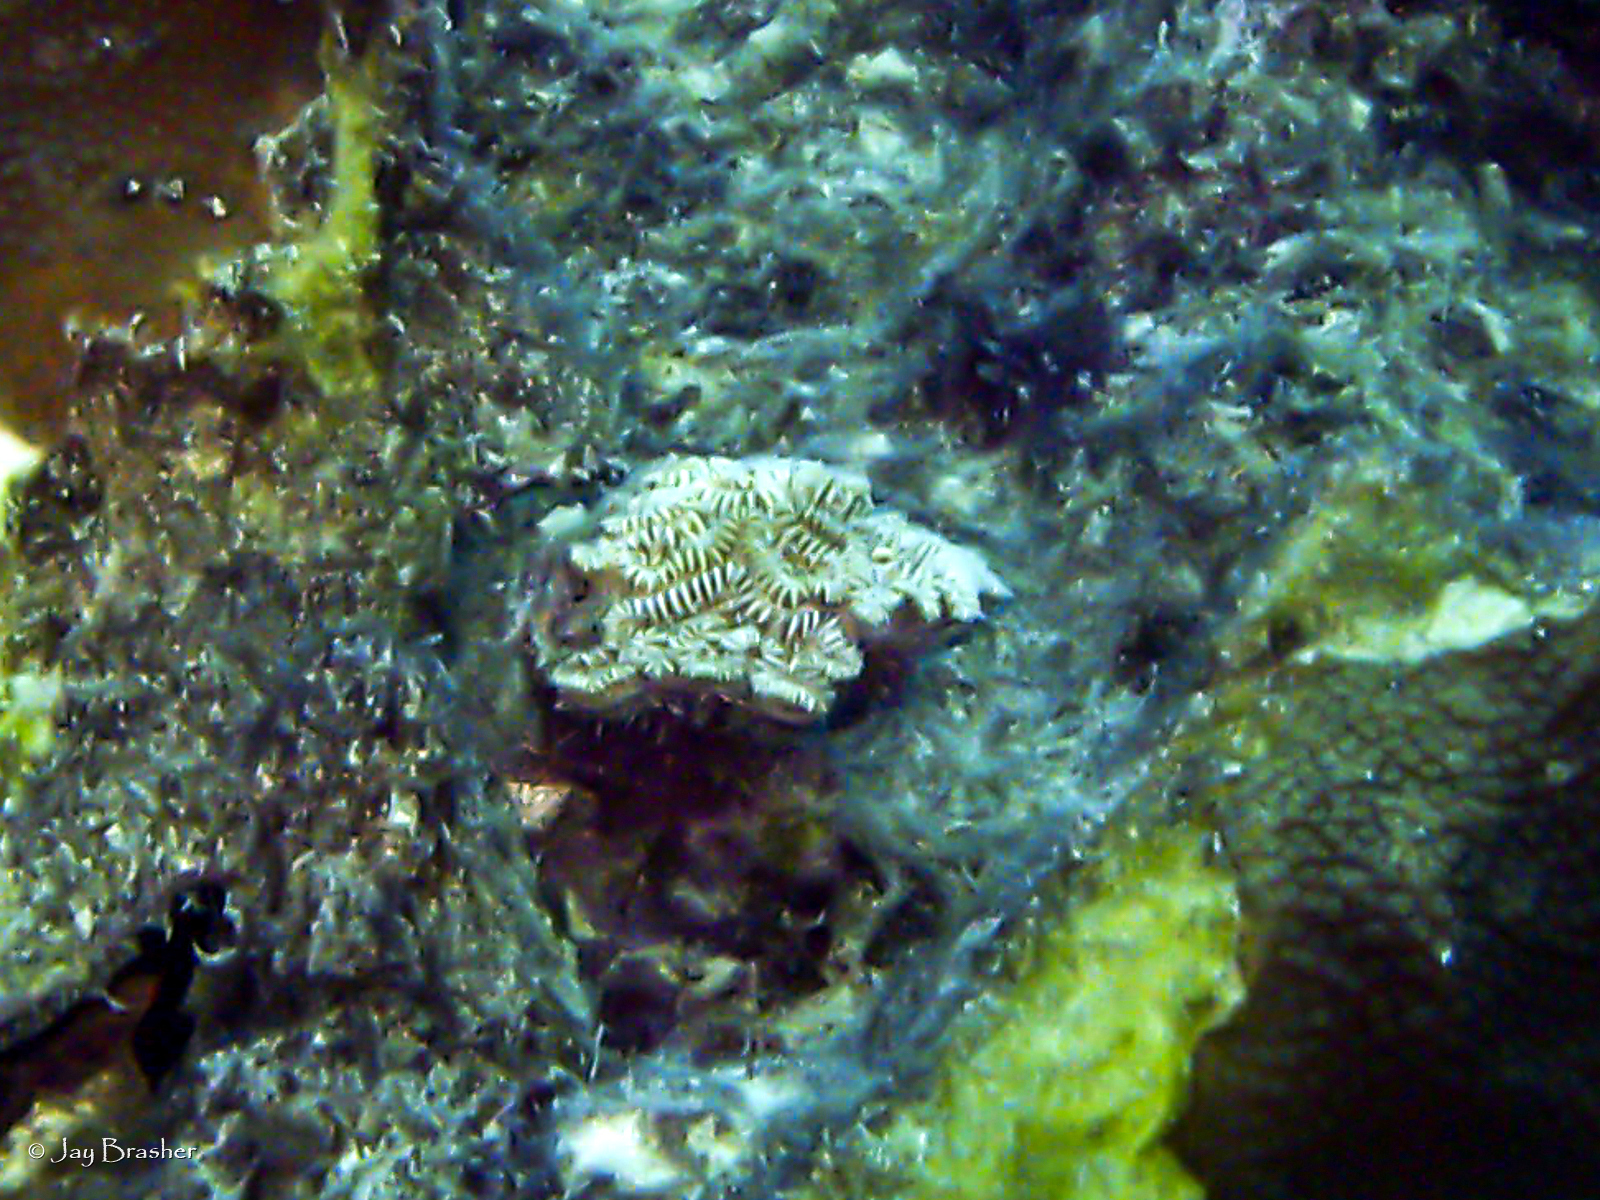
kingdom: Animalia
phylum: Cnidaria
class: Anthozoa
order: Scleractinia
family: Meandrinidae
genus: Meandrina
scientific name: Meandrina meandrites
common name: Maze coral
